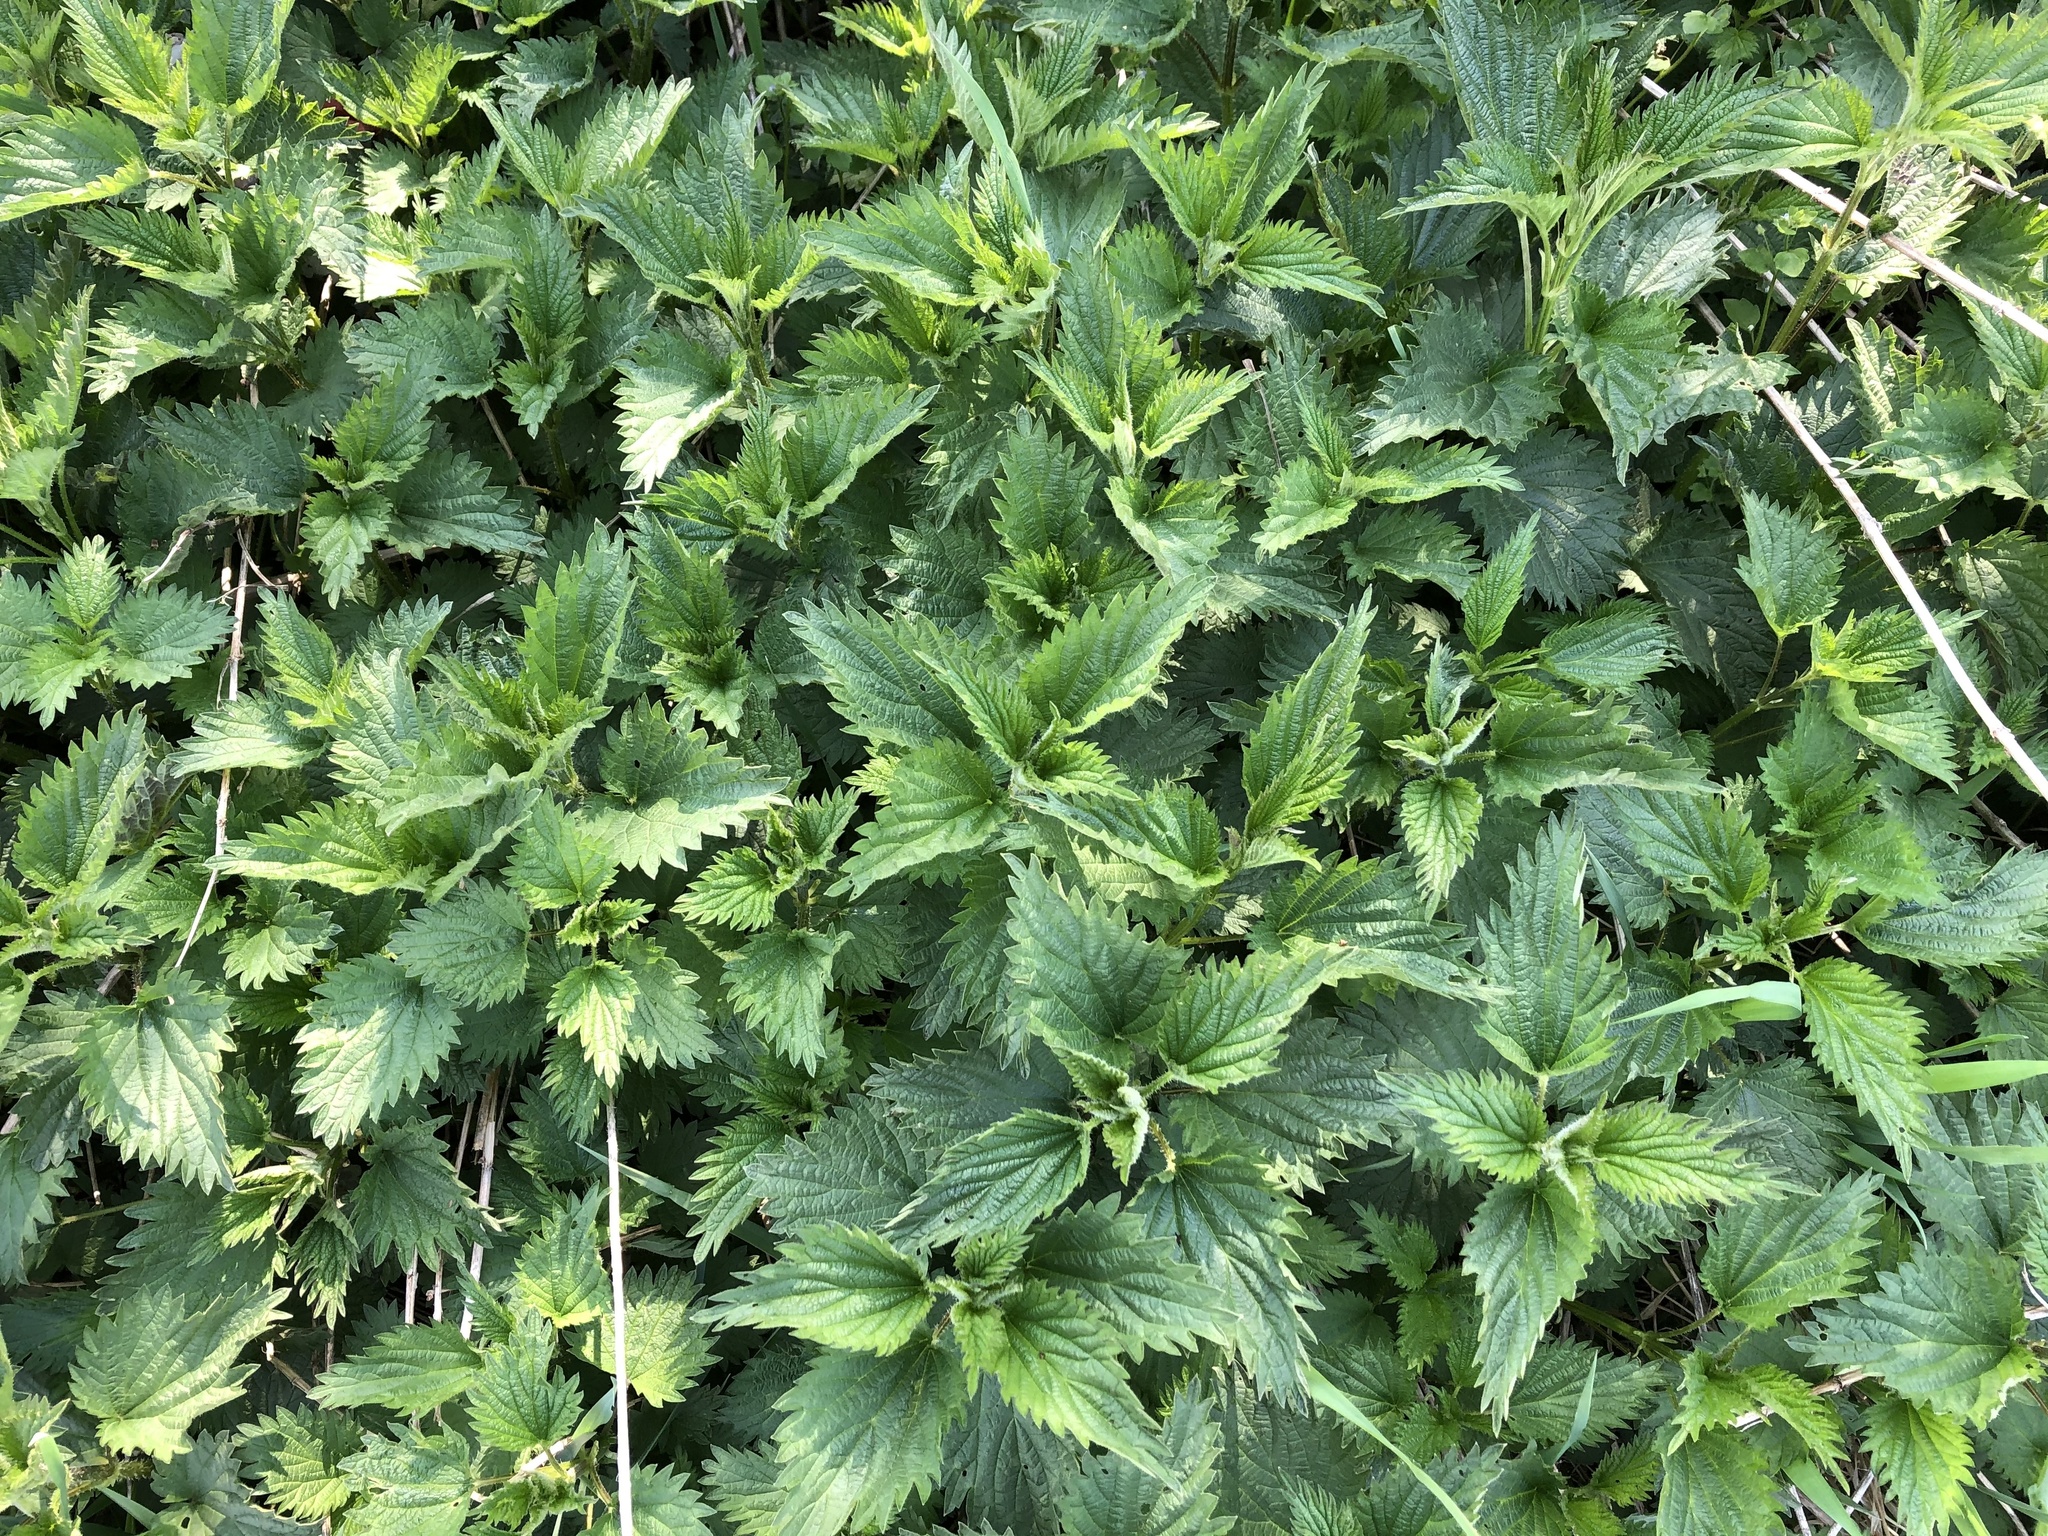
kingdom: Plantae
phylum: Tracheophyta
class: Magnoliopsida
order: Rosales
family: Urticaceae
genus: Urtica
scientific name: Urtica dioica
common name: Common nettle
